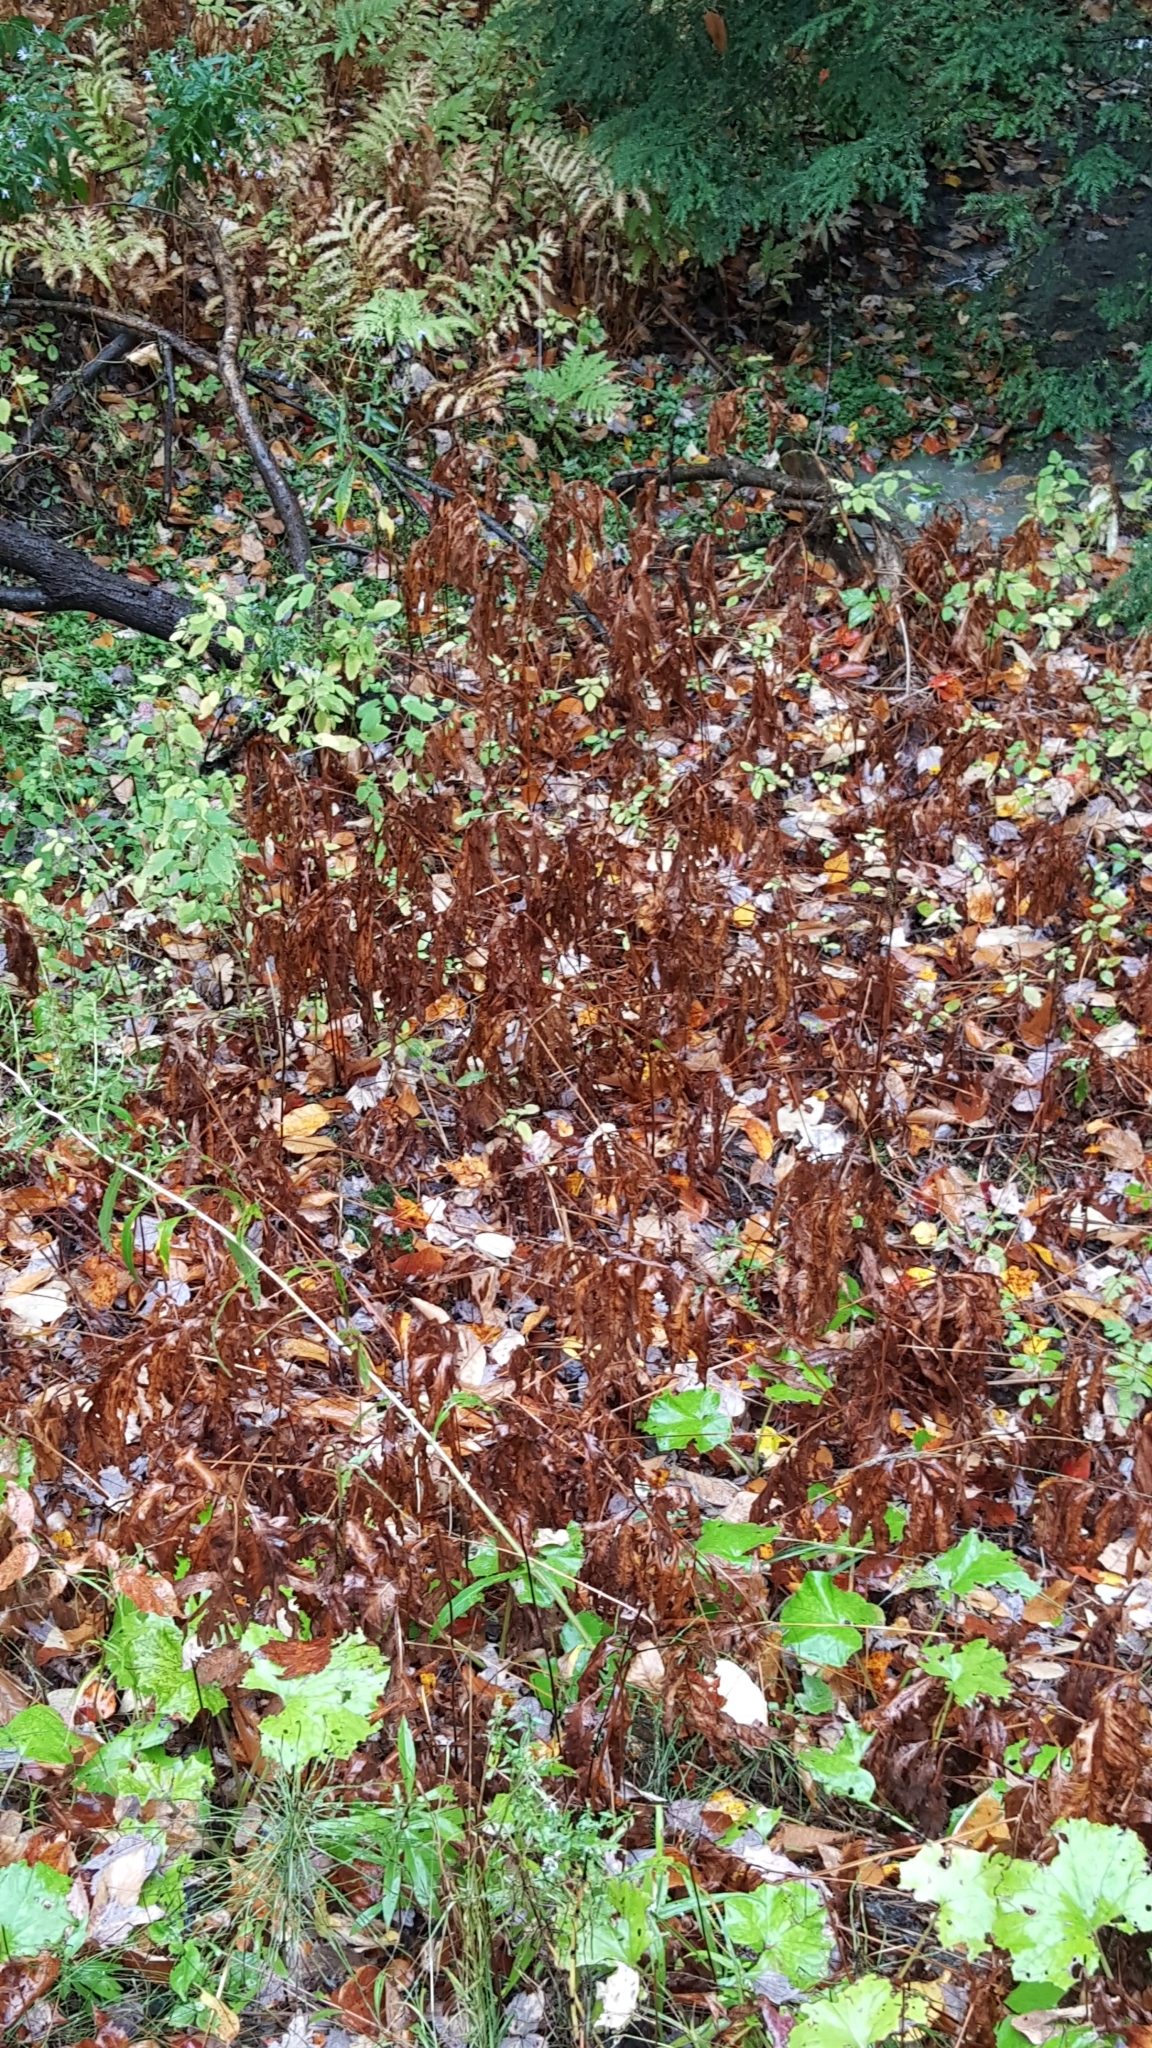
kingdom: Plantae
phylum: Tracheophyta
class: Magnoliopsida
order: Asterales
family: Asteraceae
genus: Tussilago
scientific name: Tussilago farfara
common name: Coltsfoot
